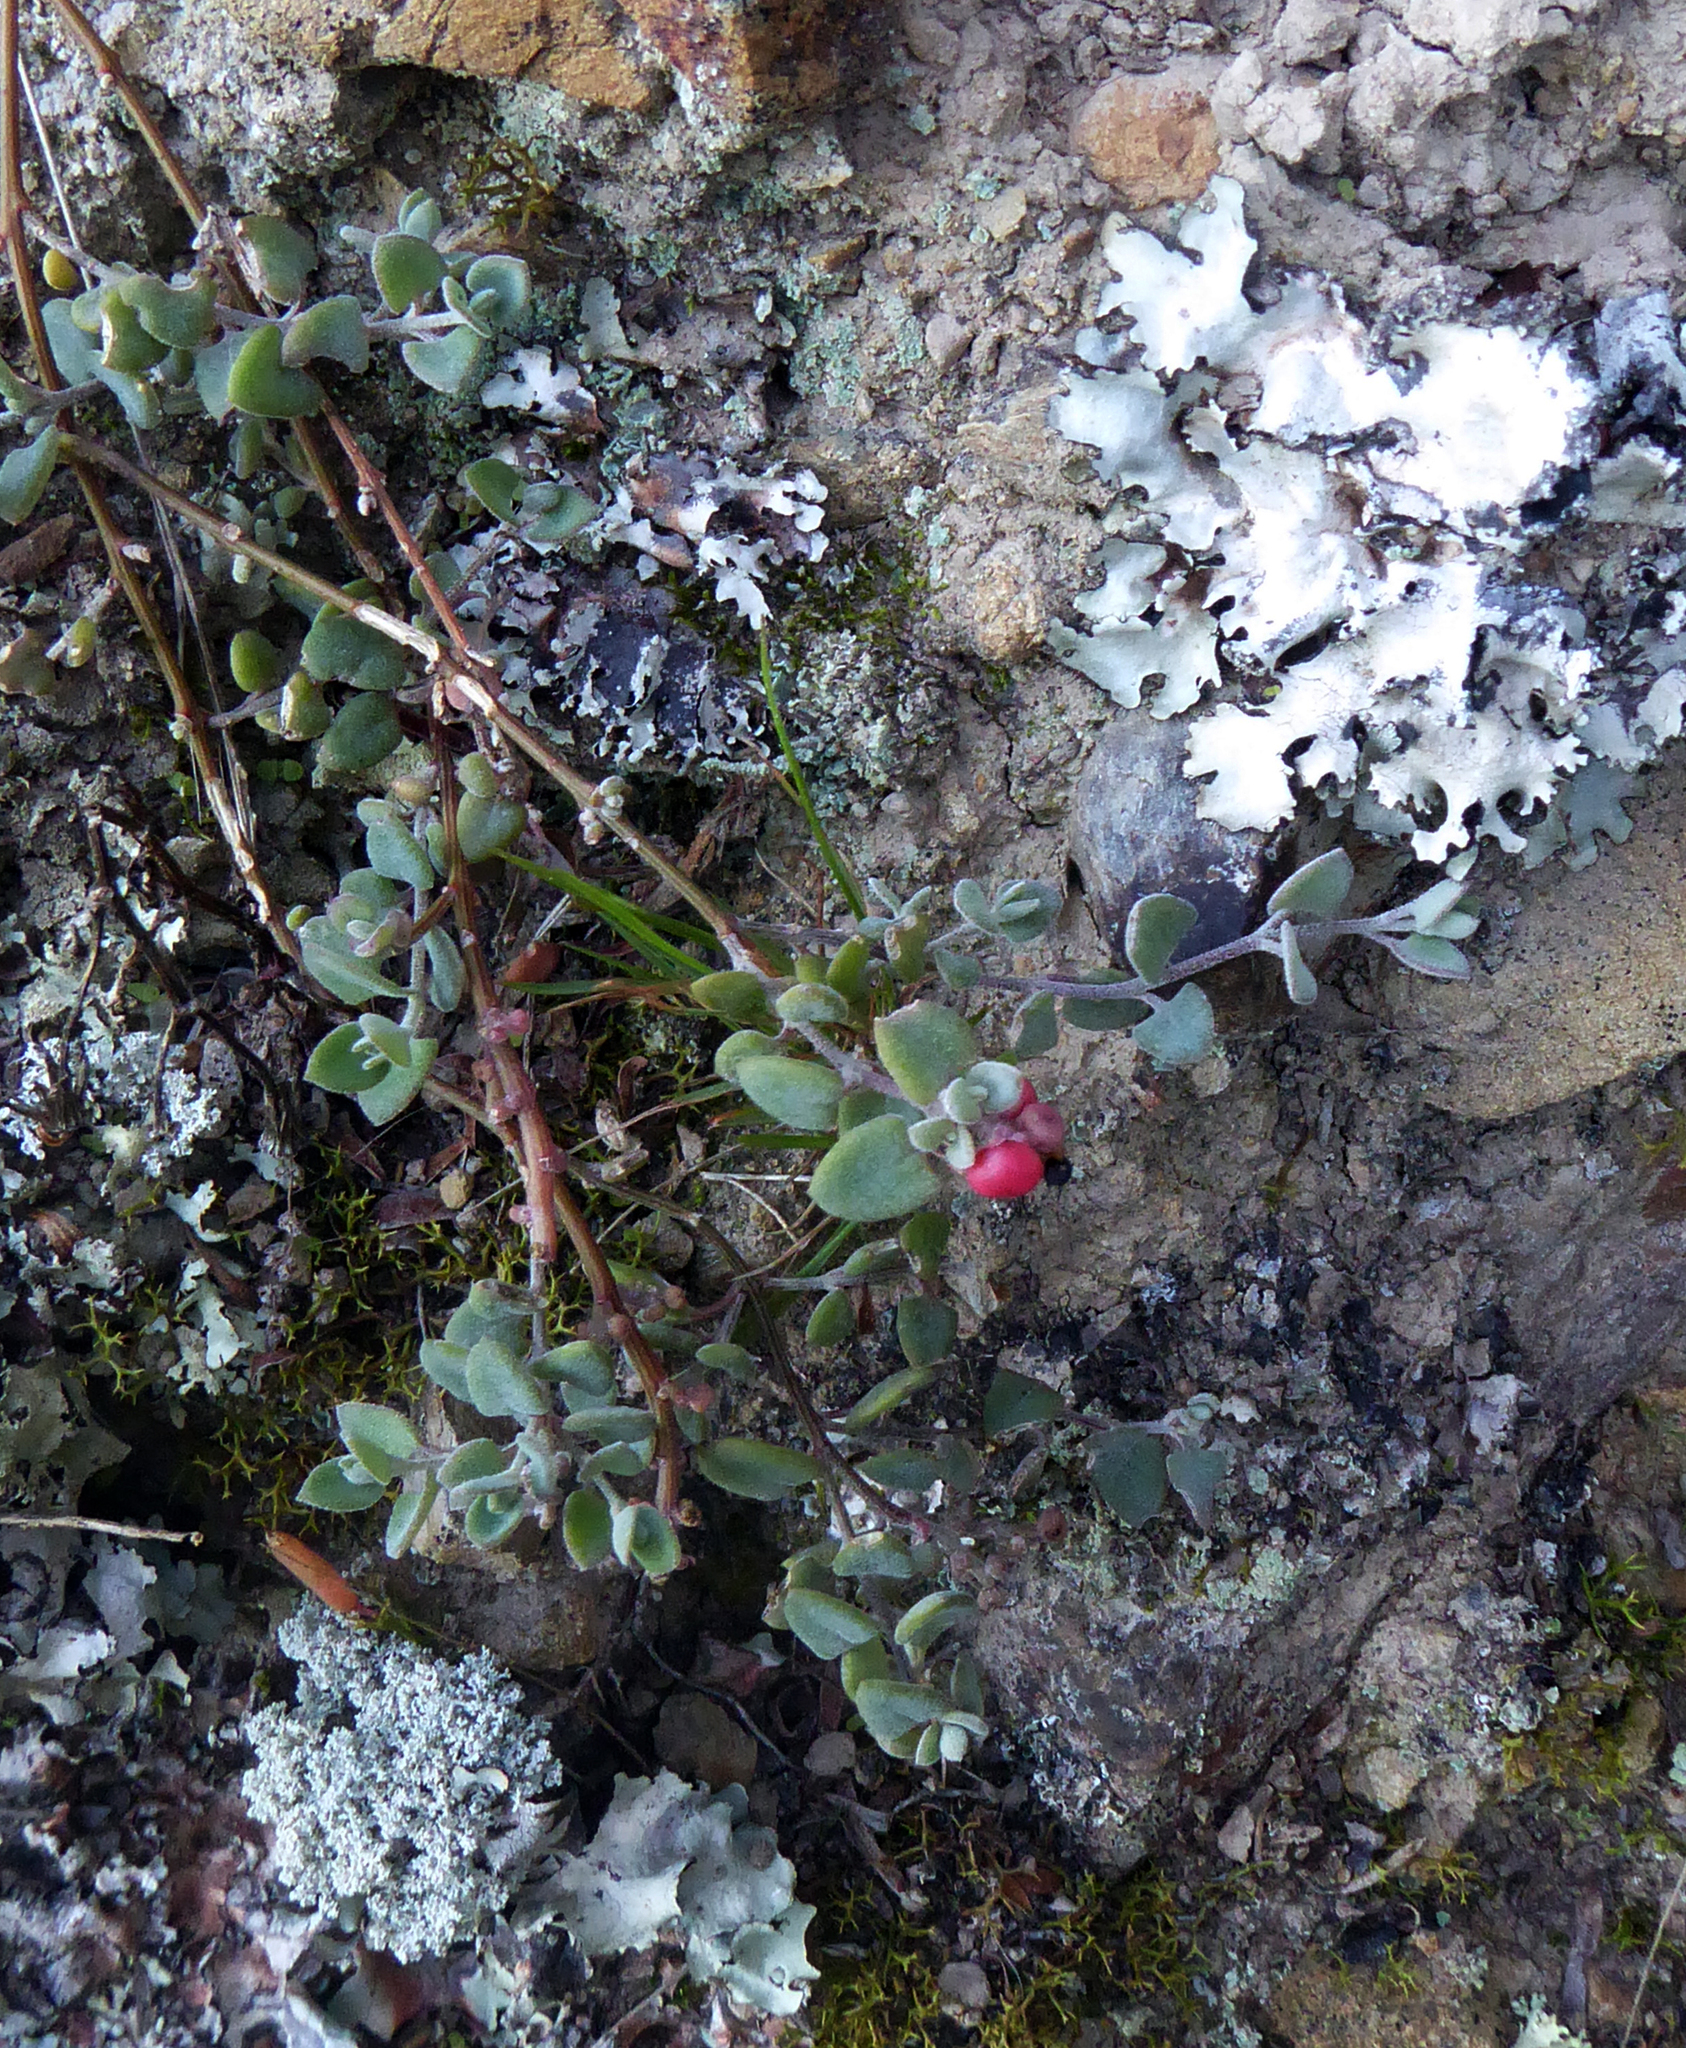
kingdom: Plantae
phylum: Tracheophyta
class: Magnoliopsida
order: Caryophyllales
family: Amaranthaceae
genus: Chenopodium
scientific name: Chenopodium triandrum
